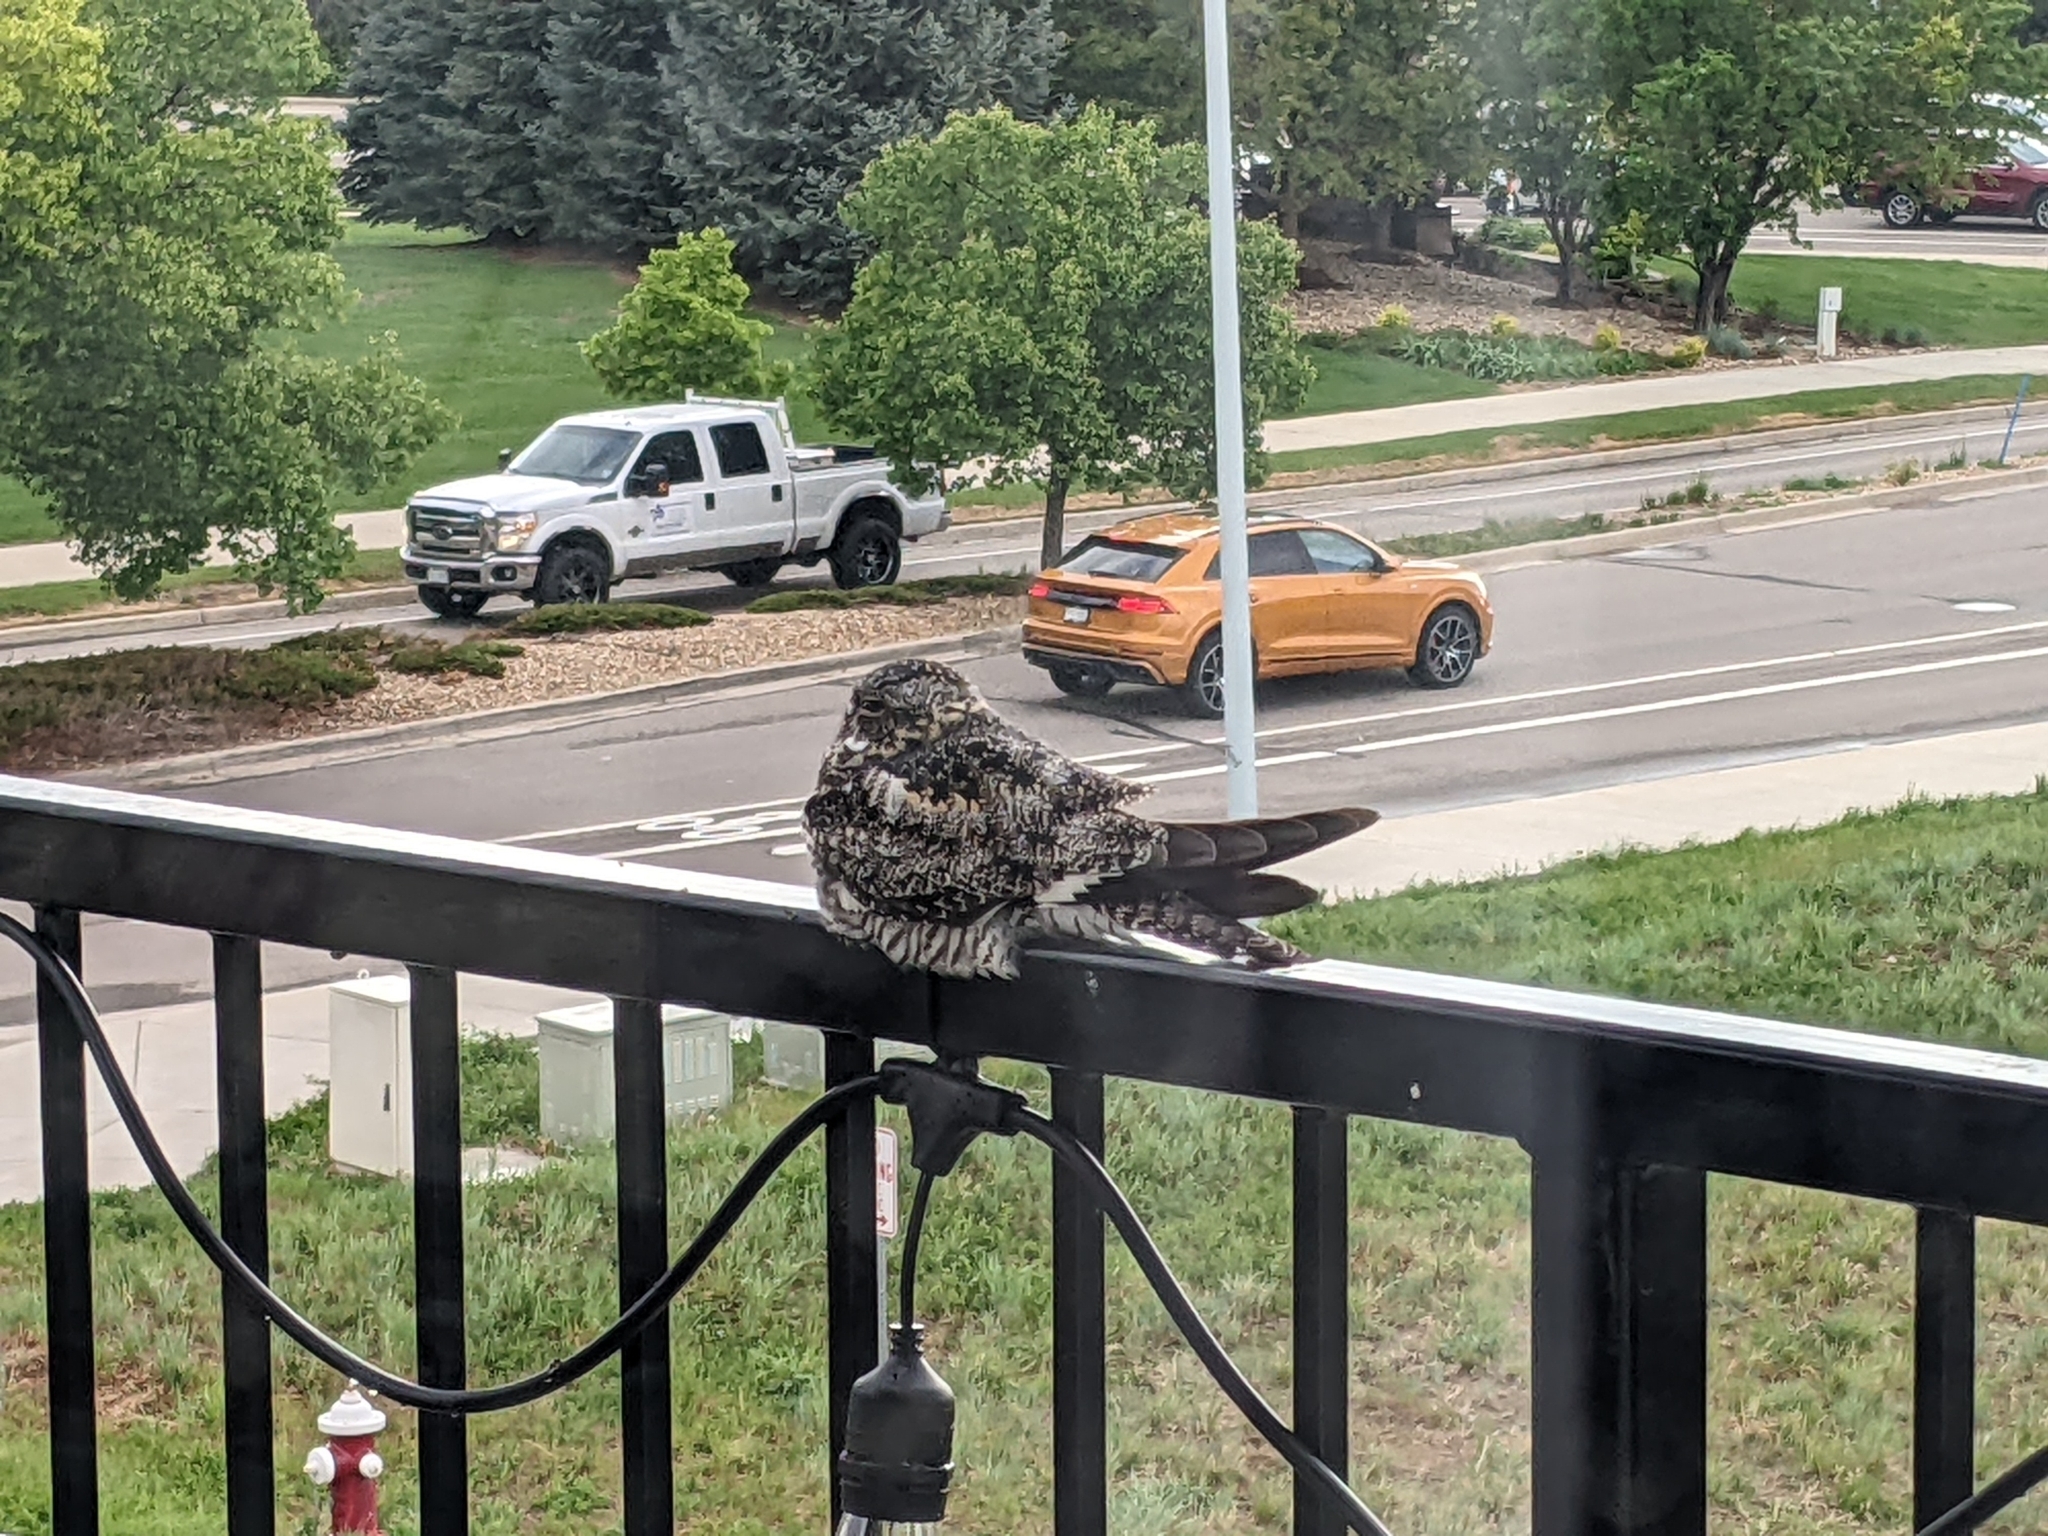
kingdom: Animalia
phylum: Chordata
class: Aves
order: Caprimulgiformes
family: Caprimulgidae
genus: Chordeiles
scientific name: Chordeiles minor
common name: Common nighthawk
